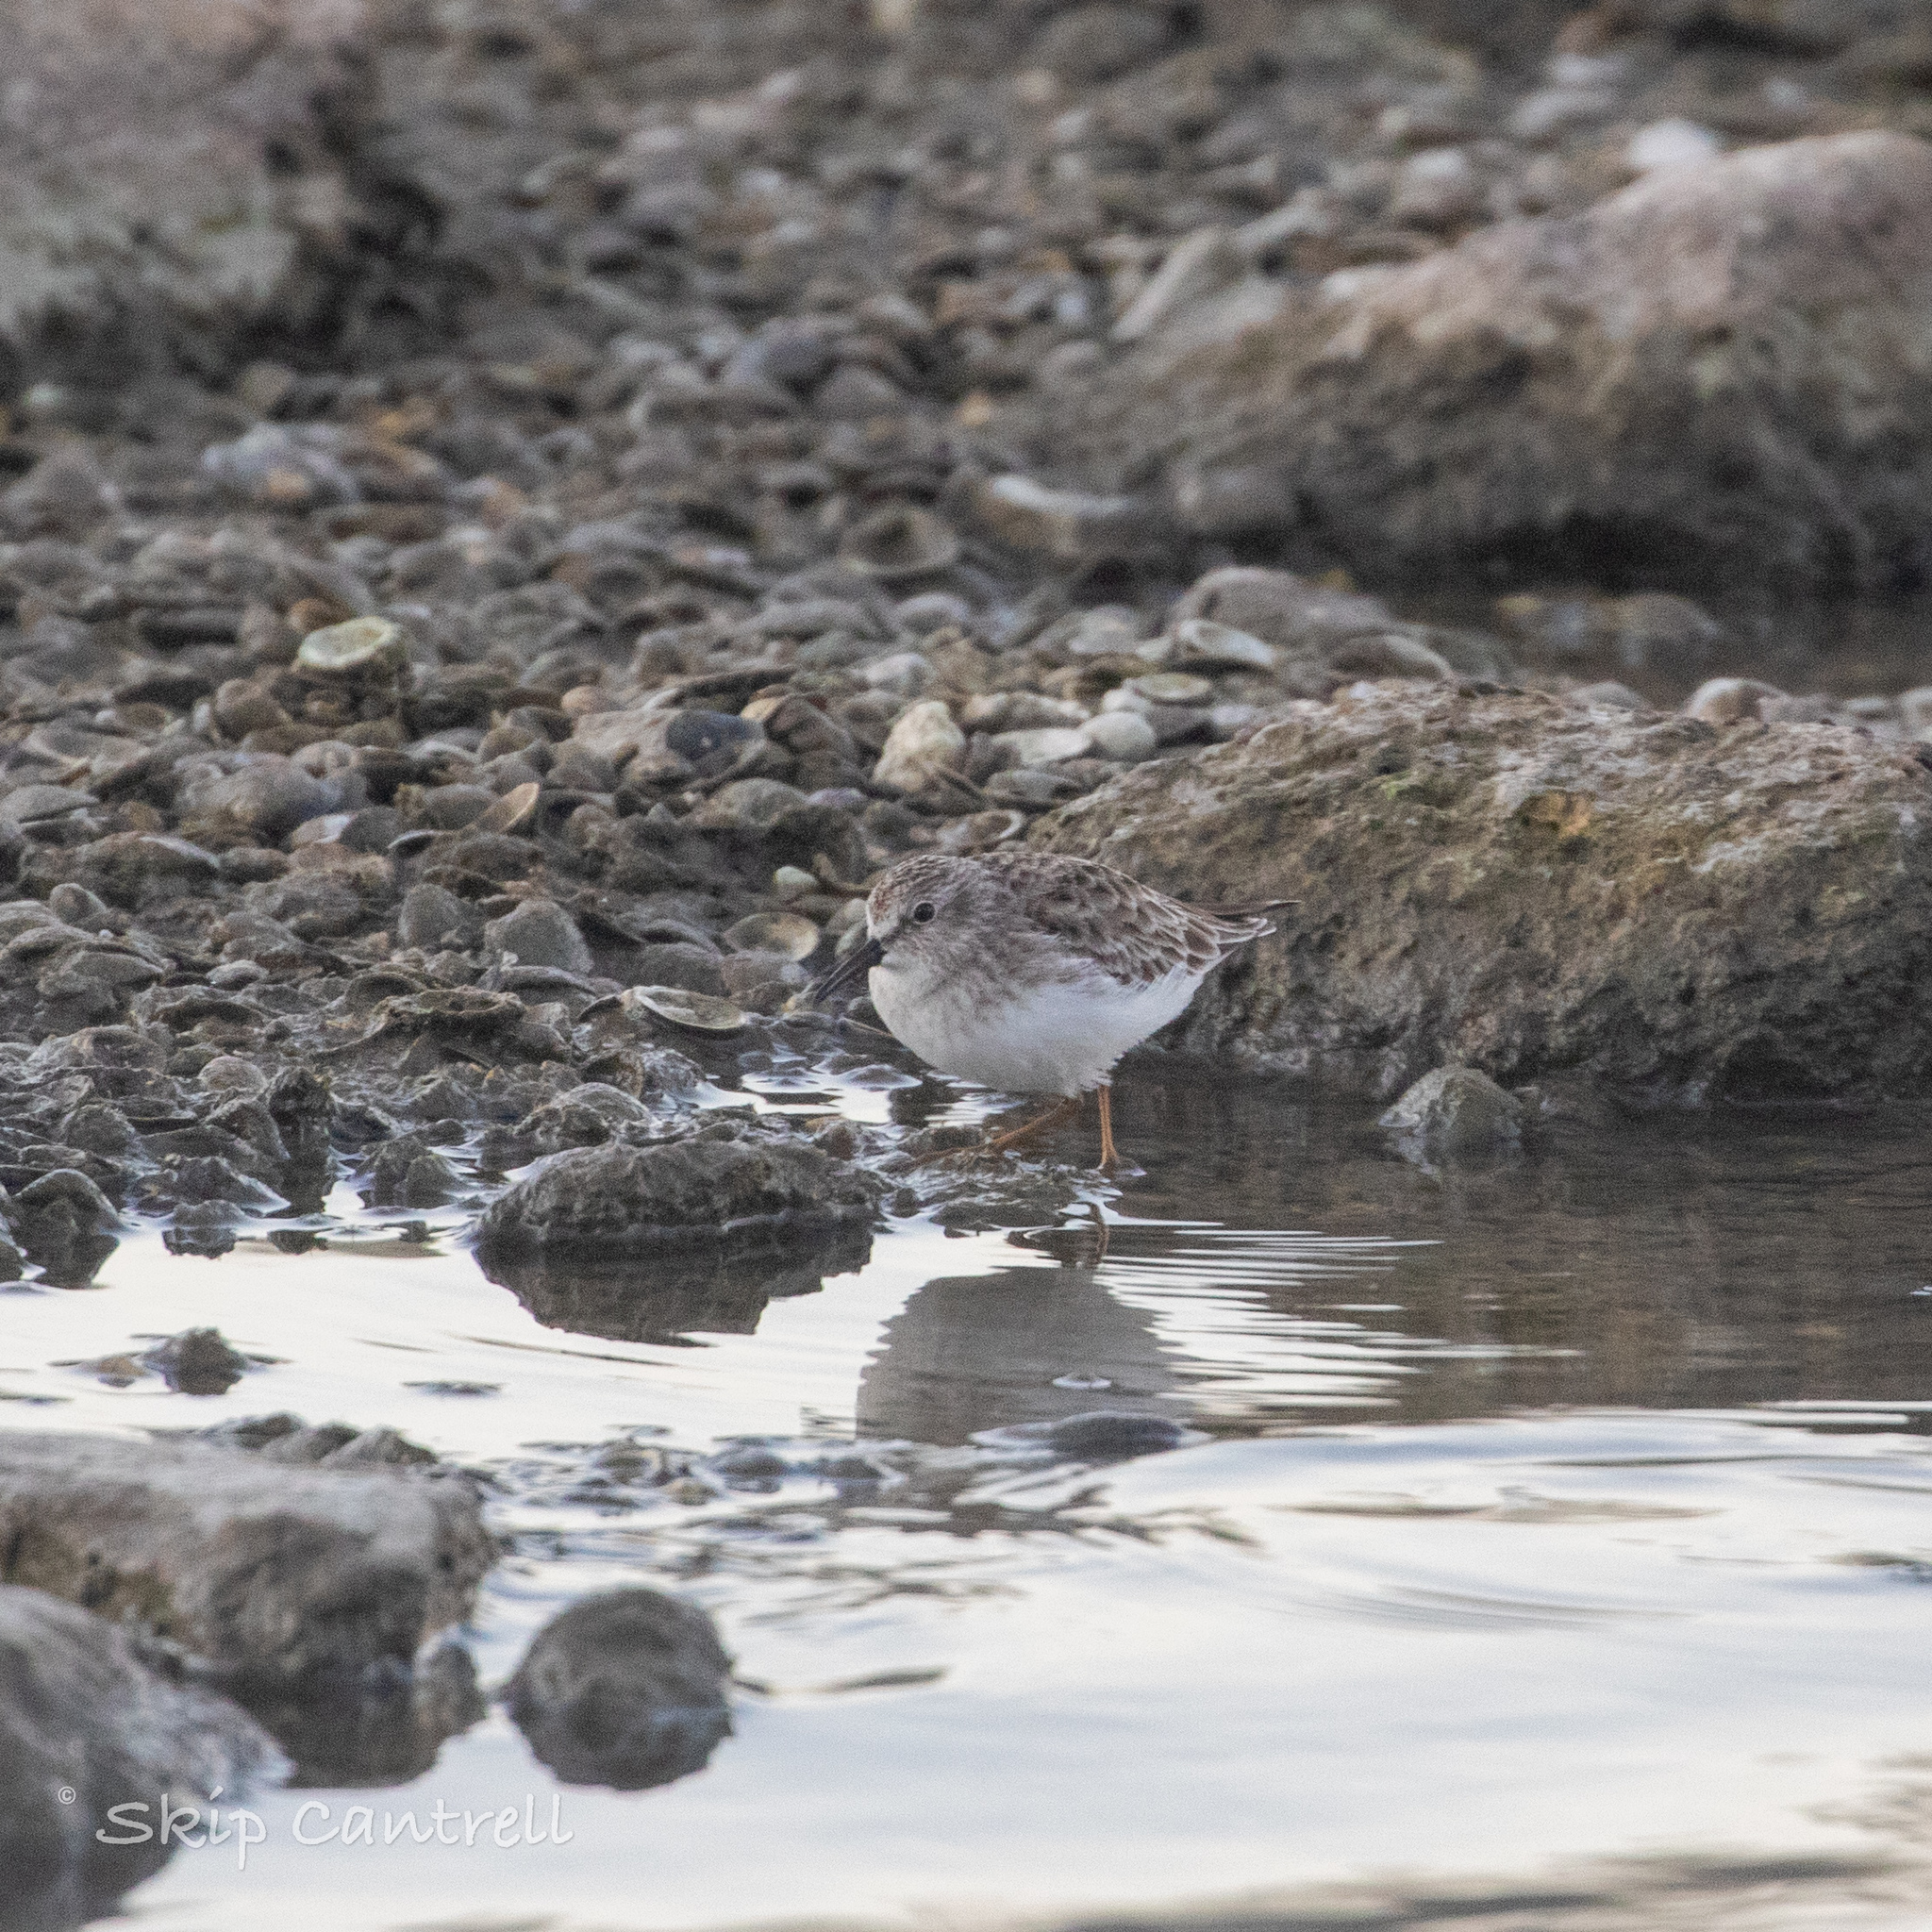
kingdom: Animalia
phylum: Chordata
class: Aves
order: Charadriiformes
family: Scolopacidae
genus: Calidris
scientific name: Calidris minutilla
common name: Least sandpiper
